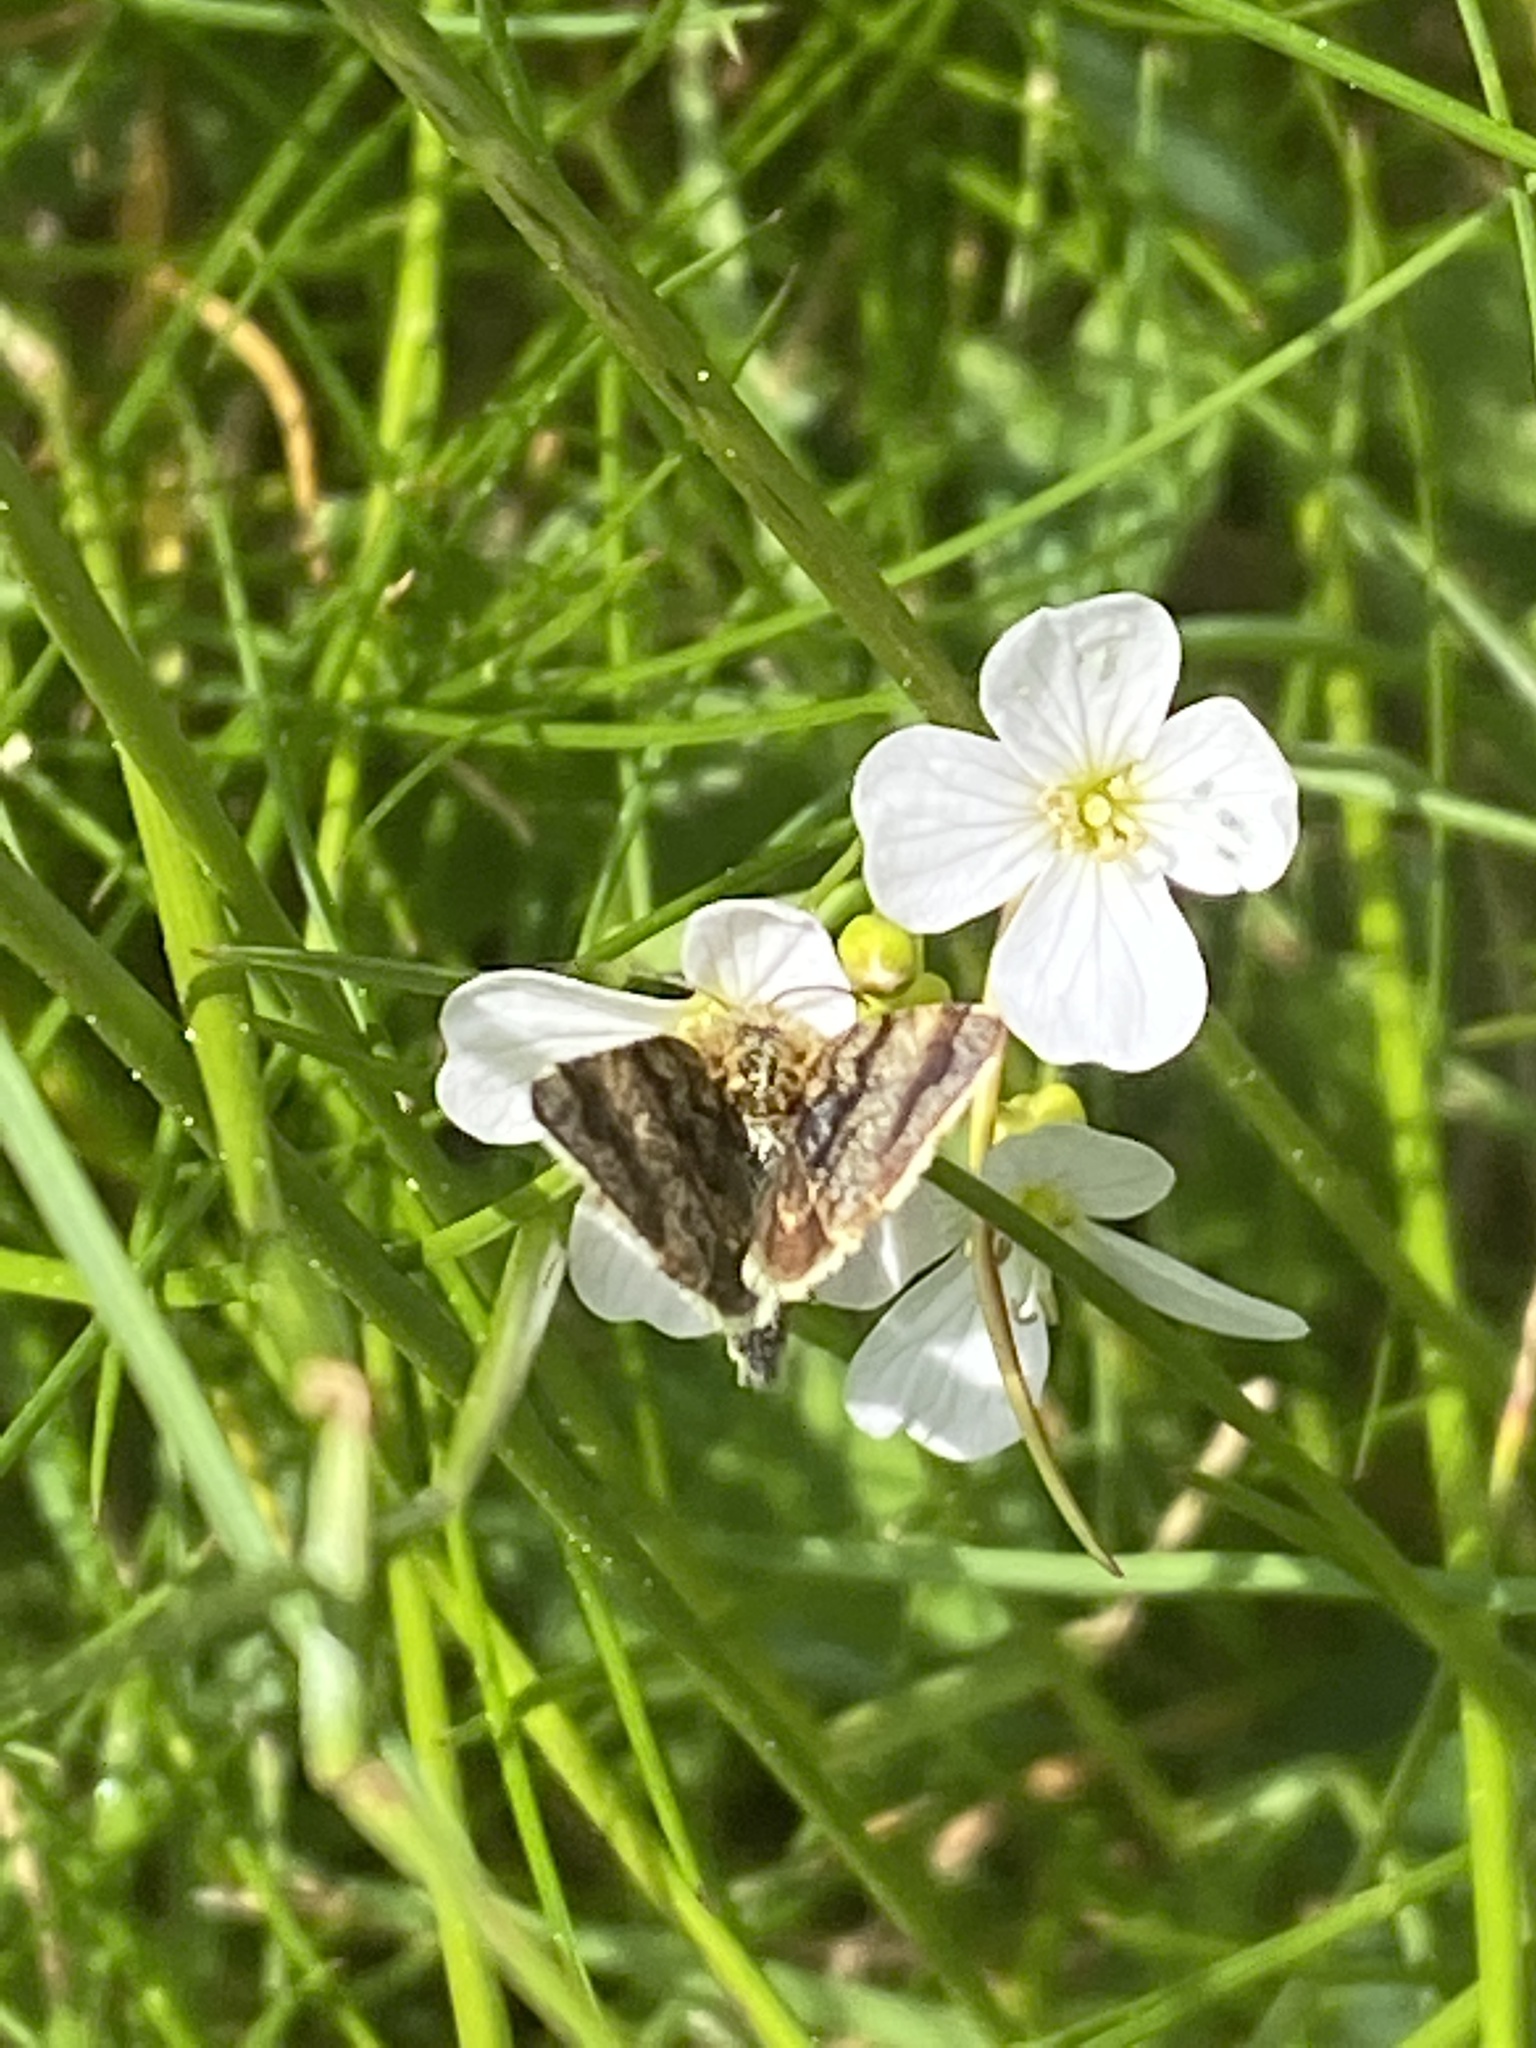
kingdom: Animalia
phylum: Arthropoda
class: Insecta
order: Lepidoptera
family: Noctuidae
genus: Panemeria
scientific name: Panemeria tenebrata
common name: Small yellow underwing
